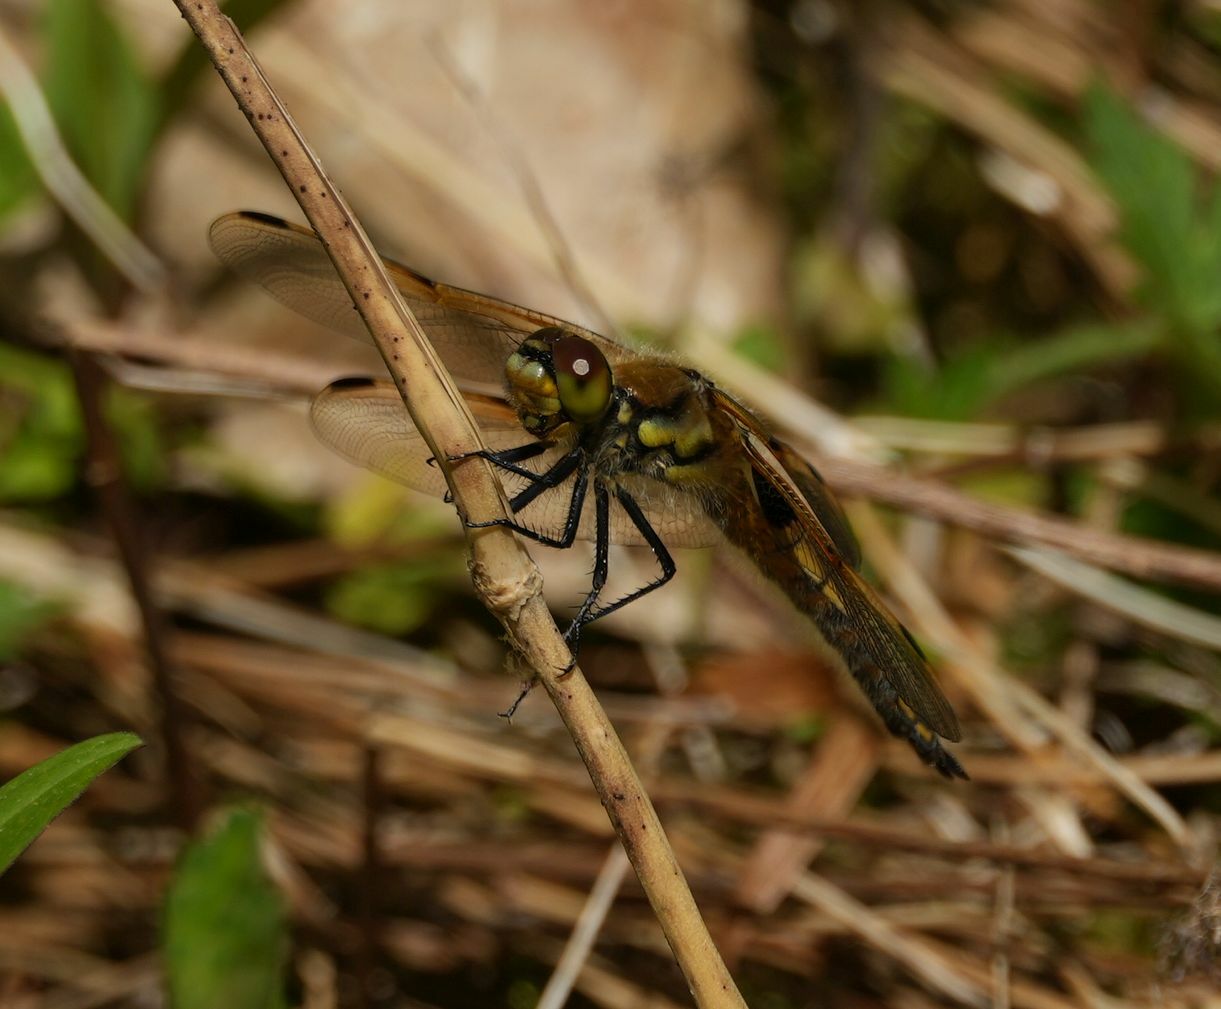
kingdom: Animalia
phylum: Arthropoda
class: Insecta
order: Odonata
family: Libellulidae
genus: Libellula
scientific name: Libellula quadrimaculata
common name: Four-spotted chaser
